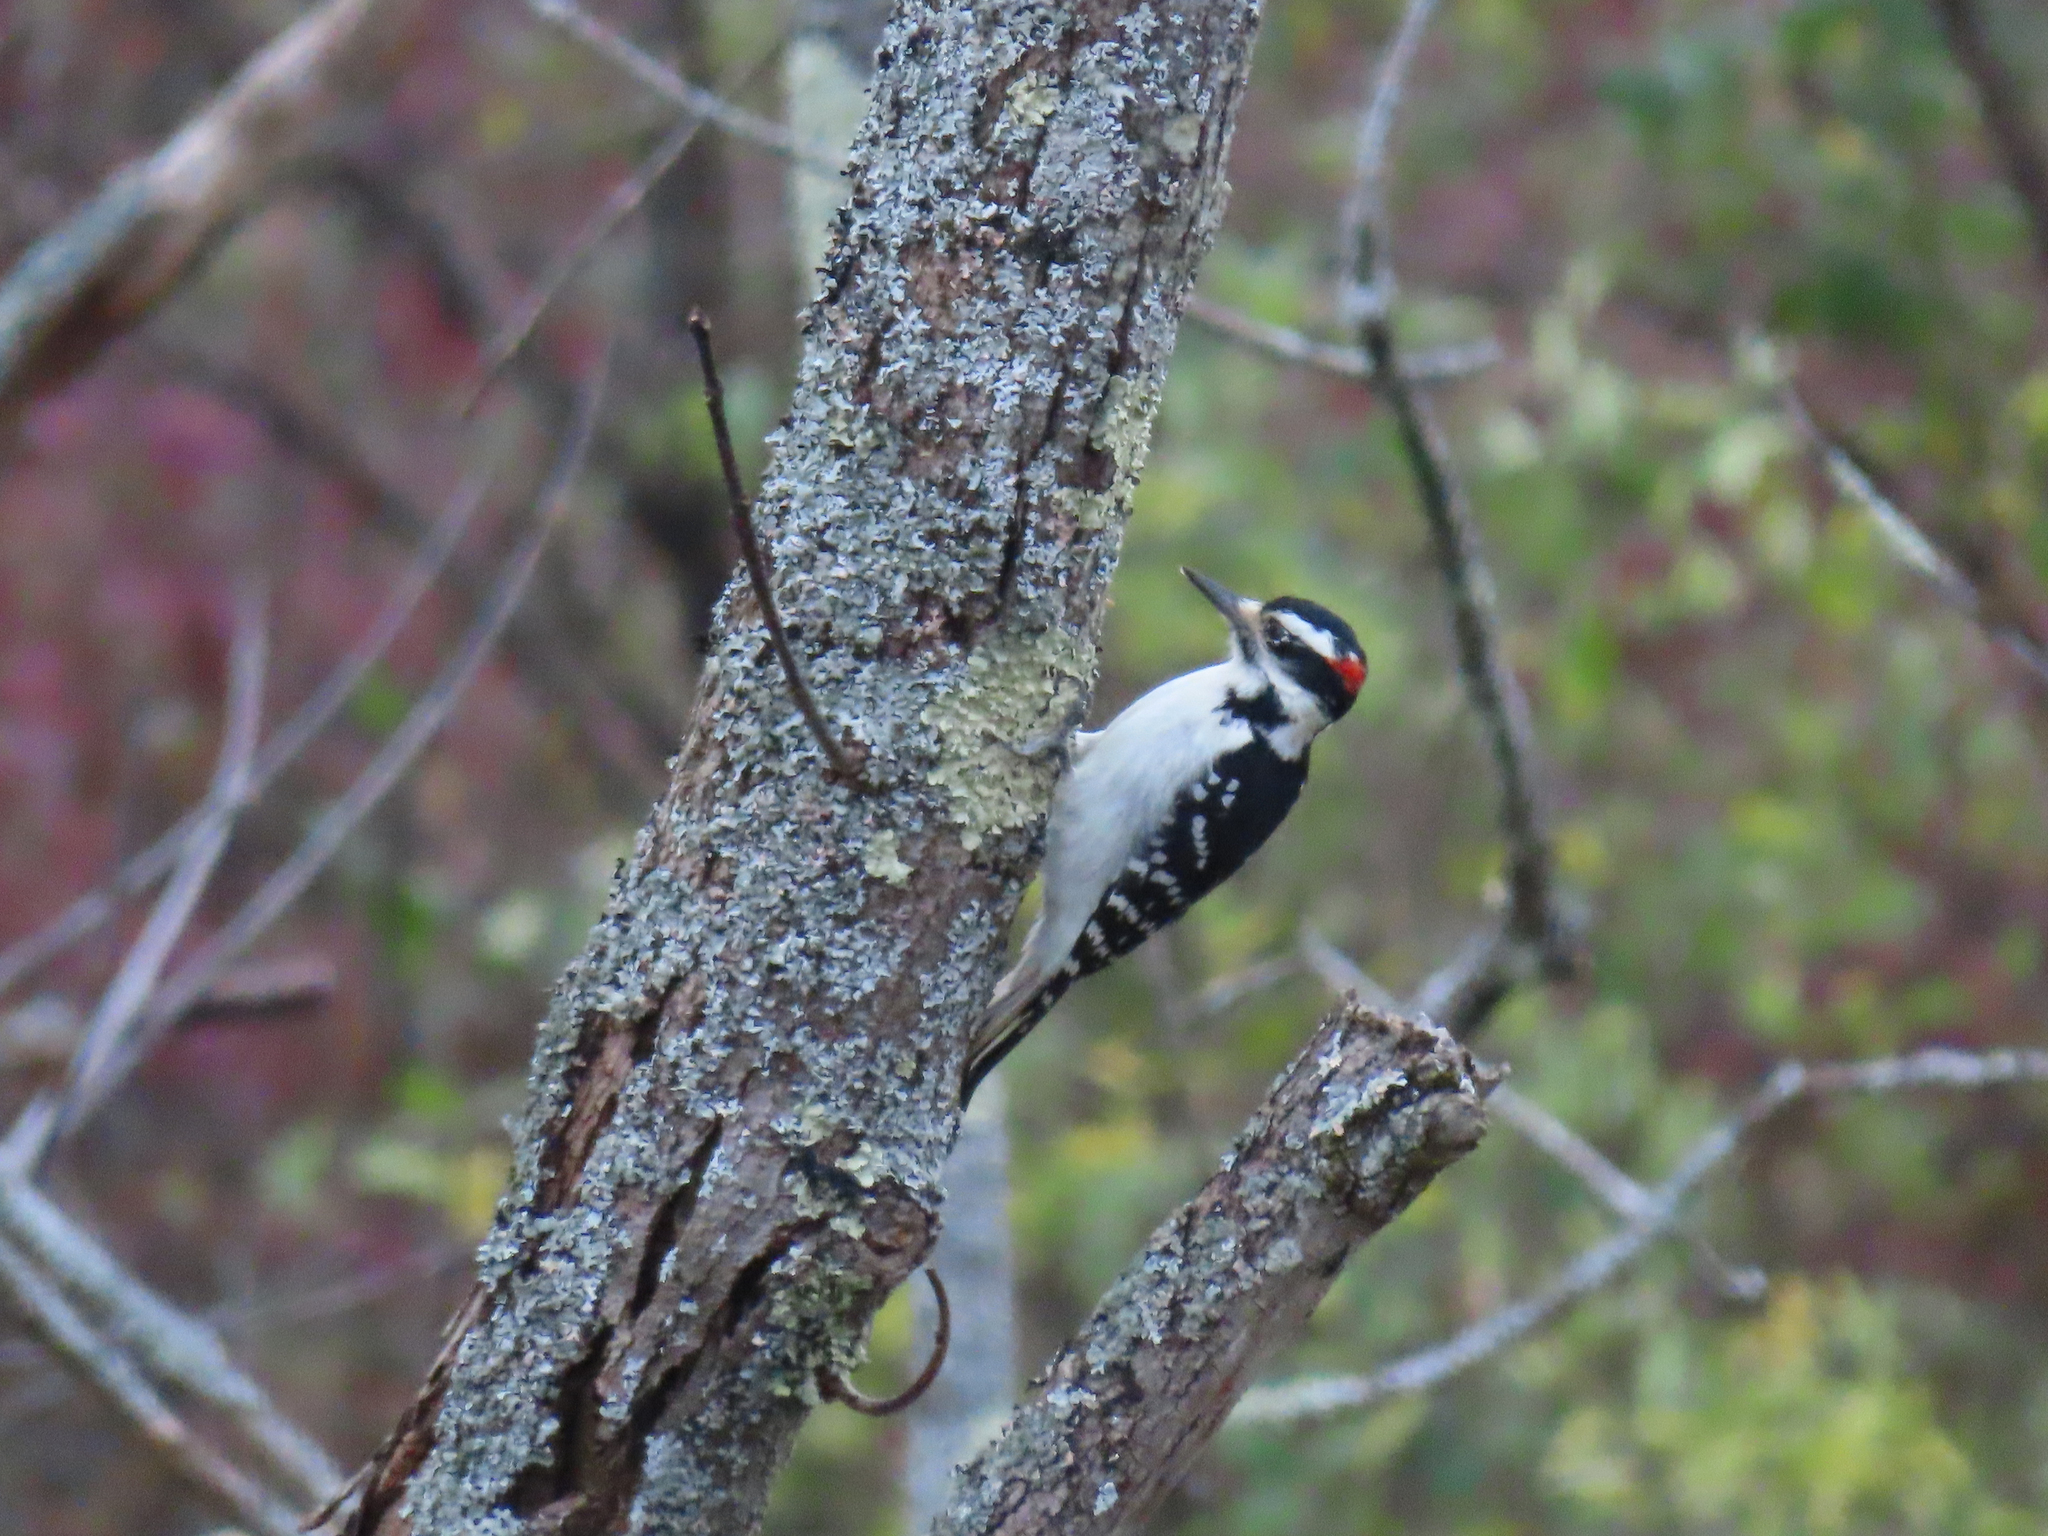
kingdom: Animalia
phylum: Chordata
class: Aves
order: Piciformes
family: Picidae
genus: Leuconotopicus
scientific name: Leuconotopicus villosus
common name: Hairy woodpecker
